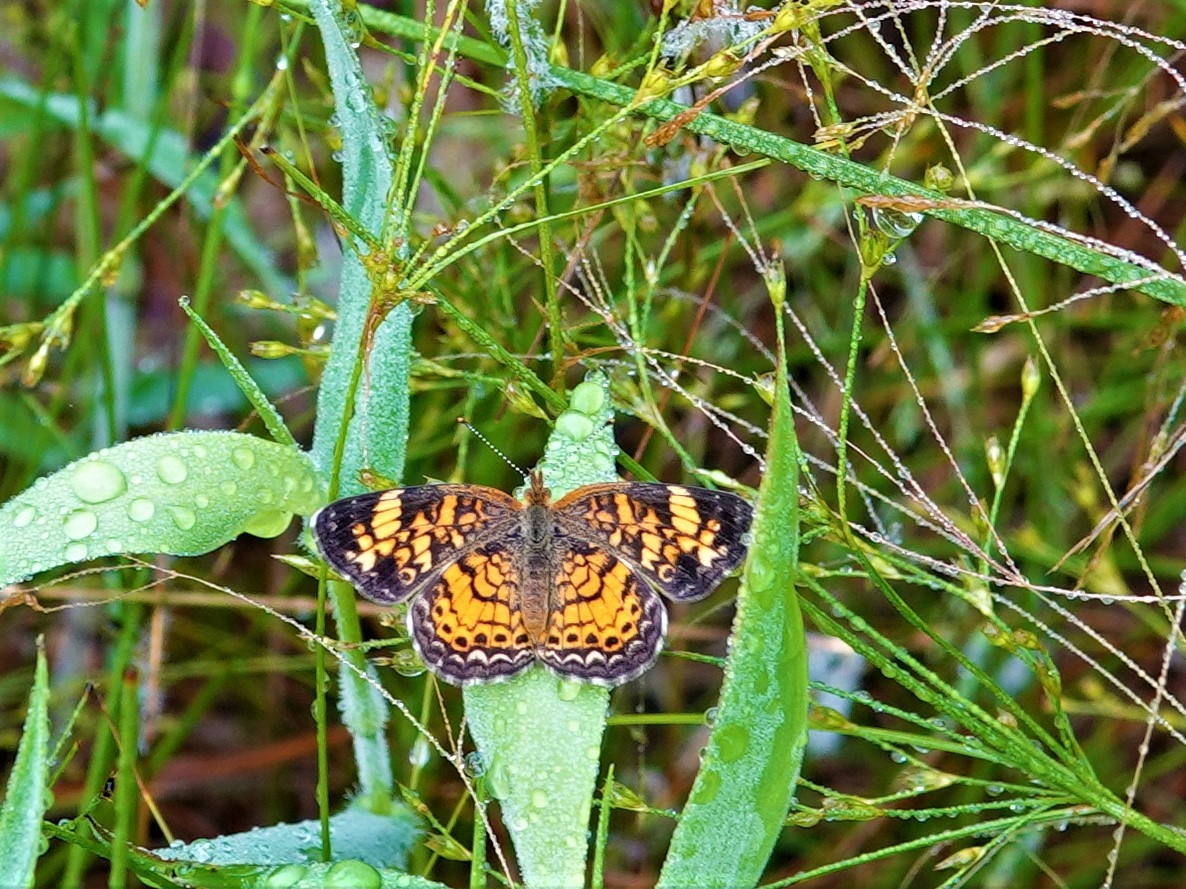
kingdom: Animalia
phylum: Arthropoda
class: Insecta
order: Lepidoptera
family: Nymphalidae
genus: Phyciodes
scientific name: Phyciodes tharos
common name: Pearl crescent
